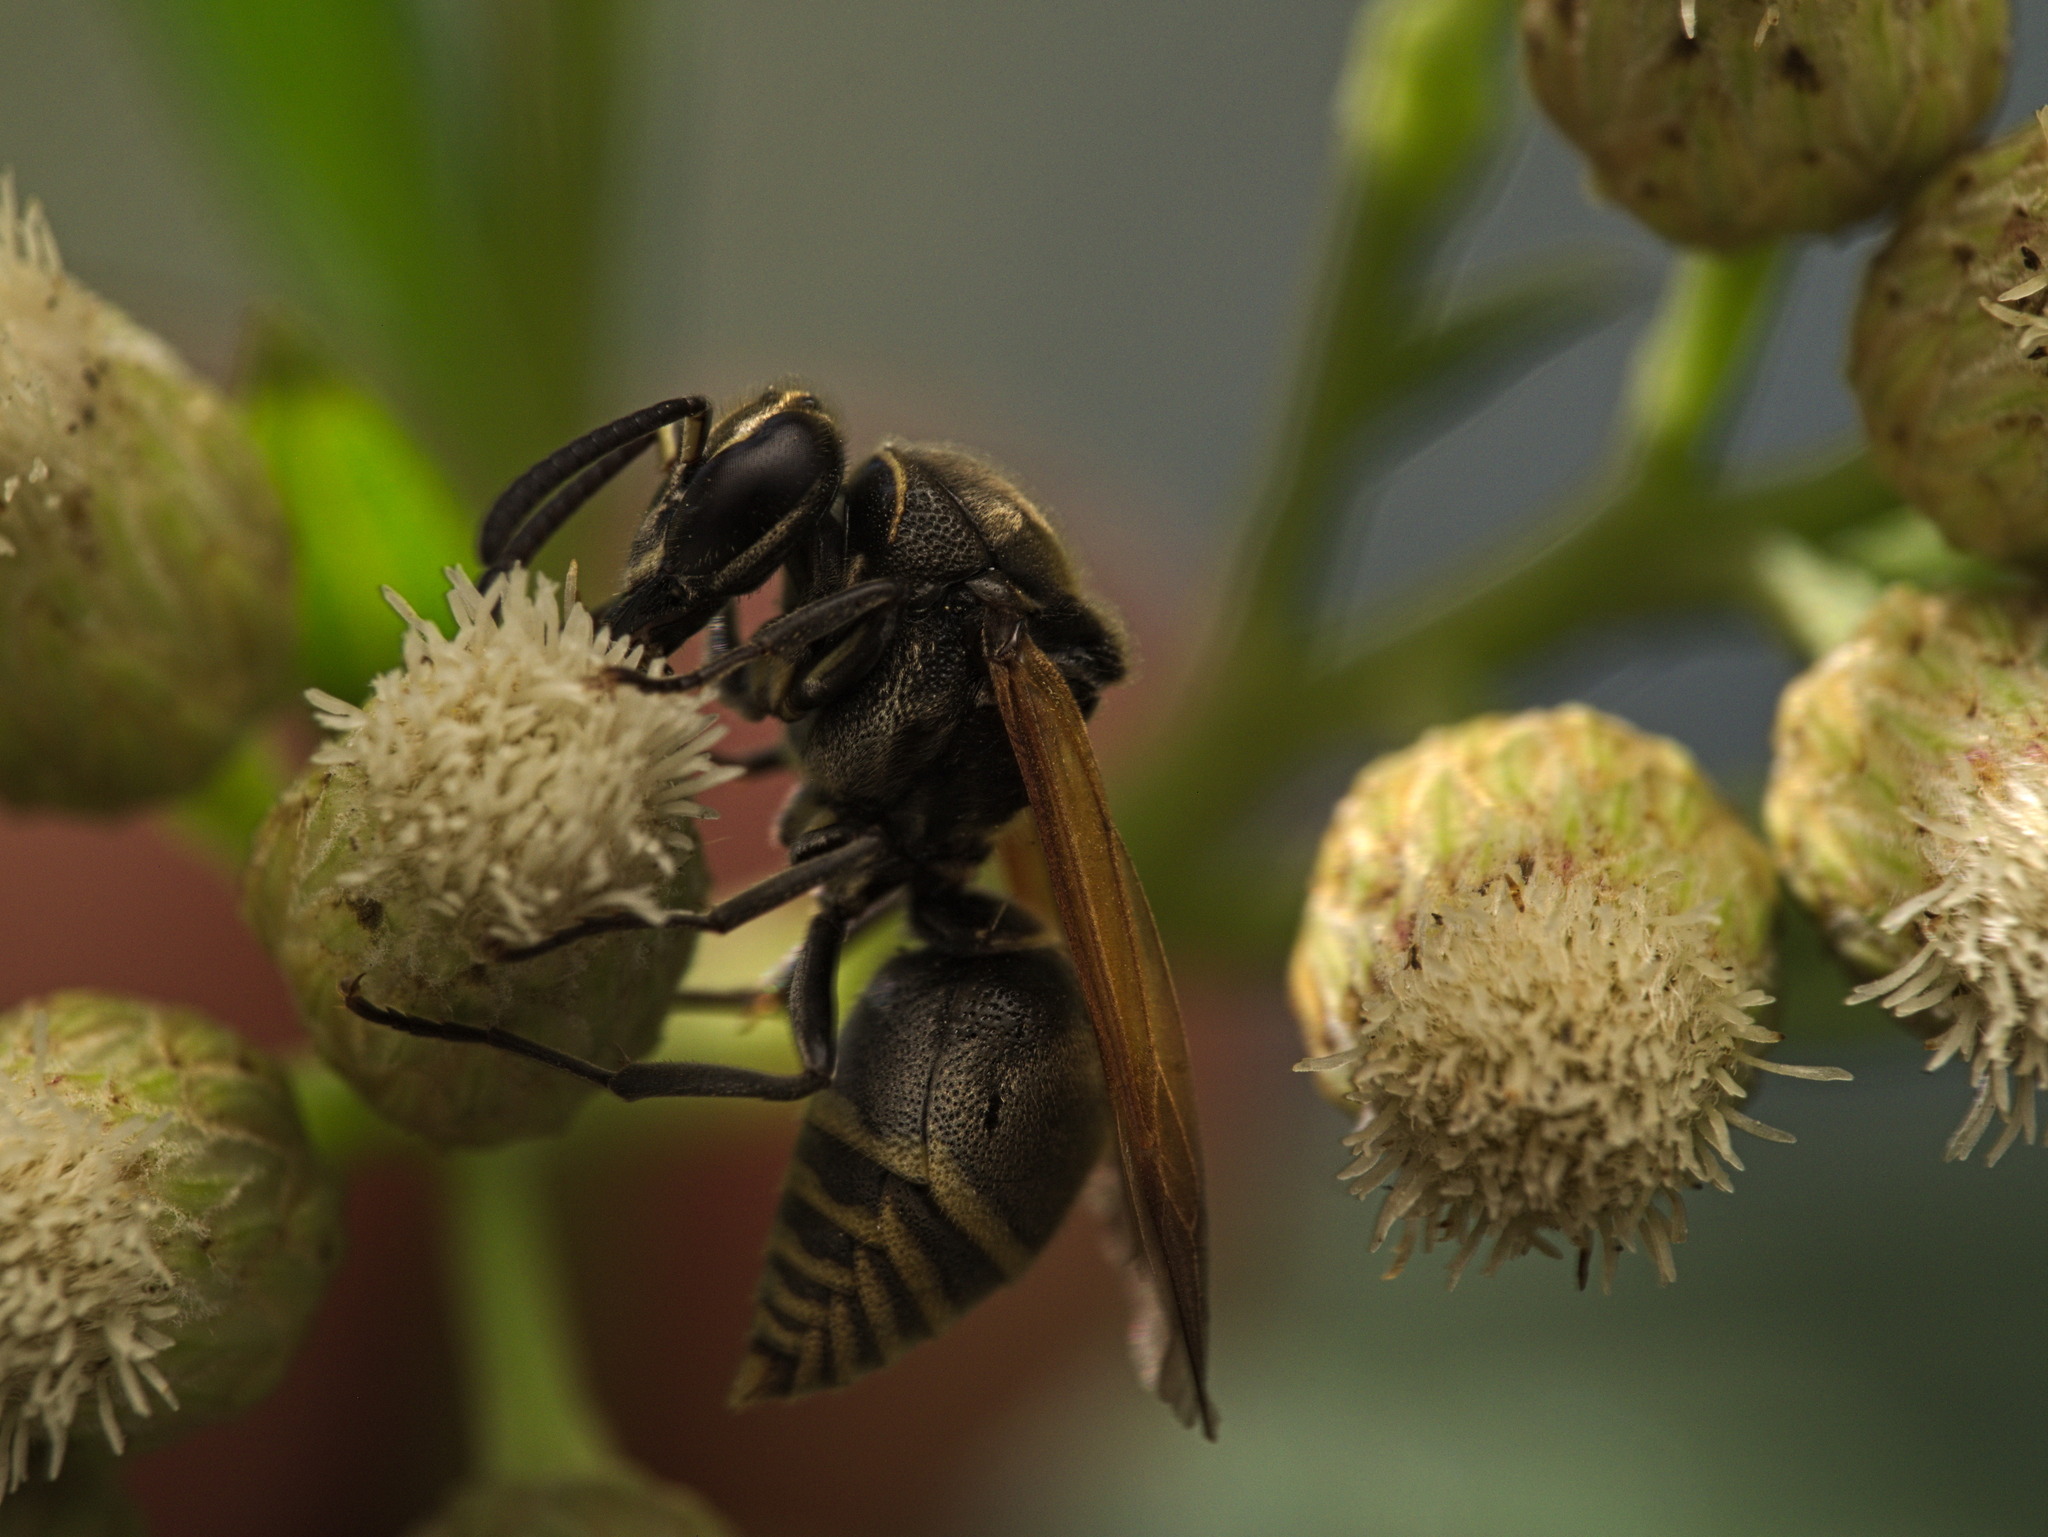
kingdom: Animalia
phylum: Arthropoda
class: Insecta
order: Hymenoptera
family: Vespidae
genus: Brachygastra
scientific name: Brachygastra mellifica
